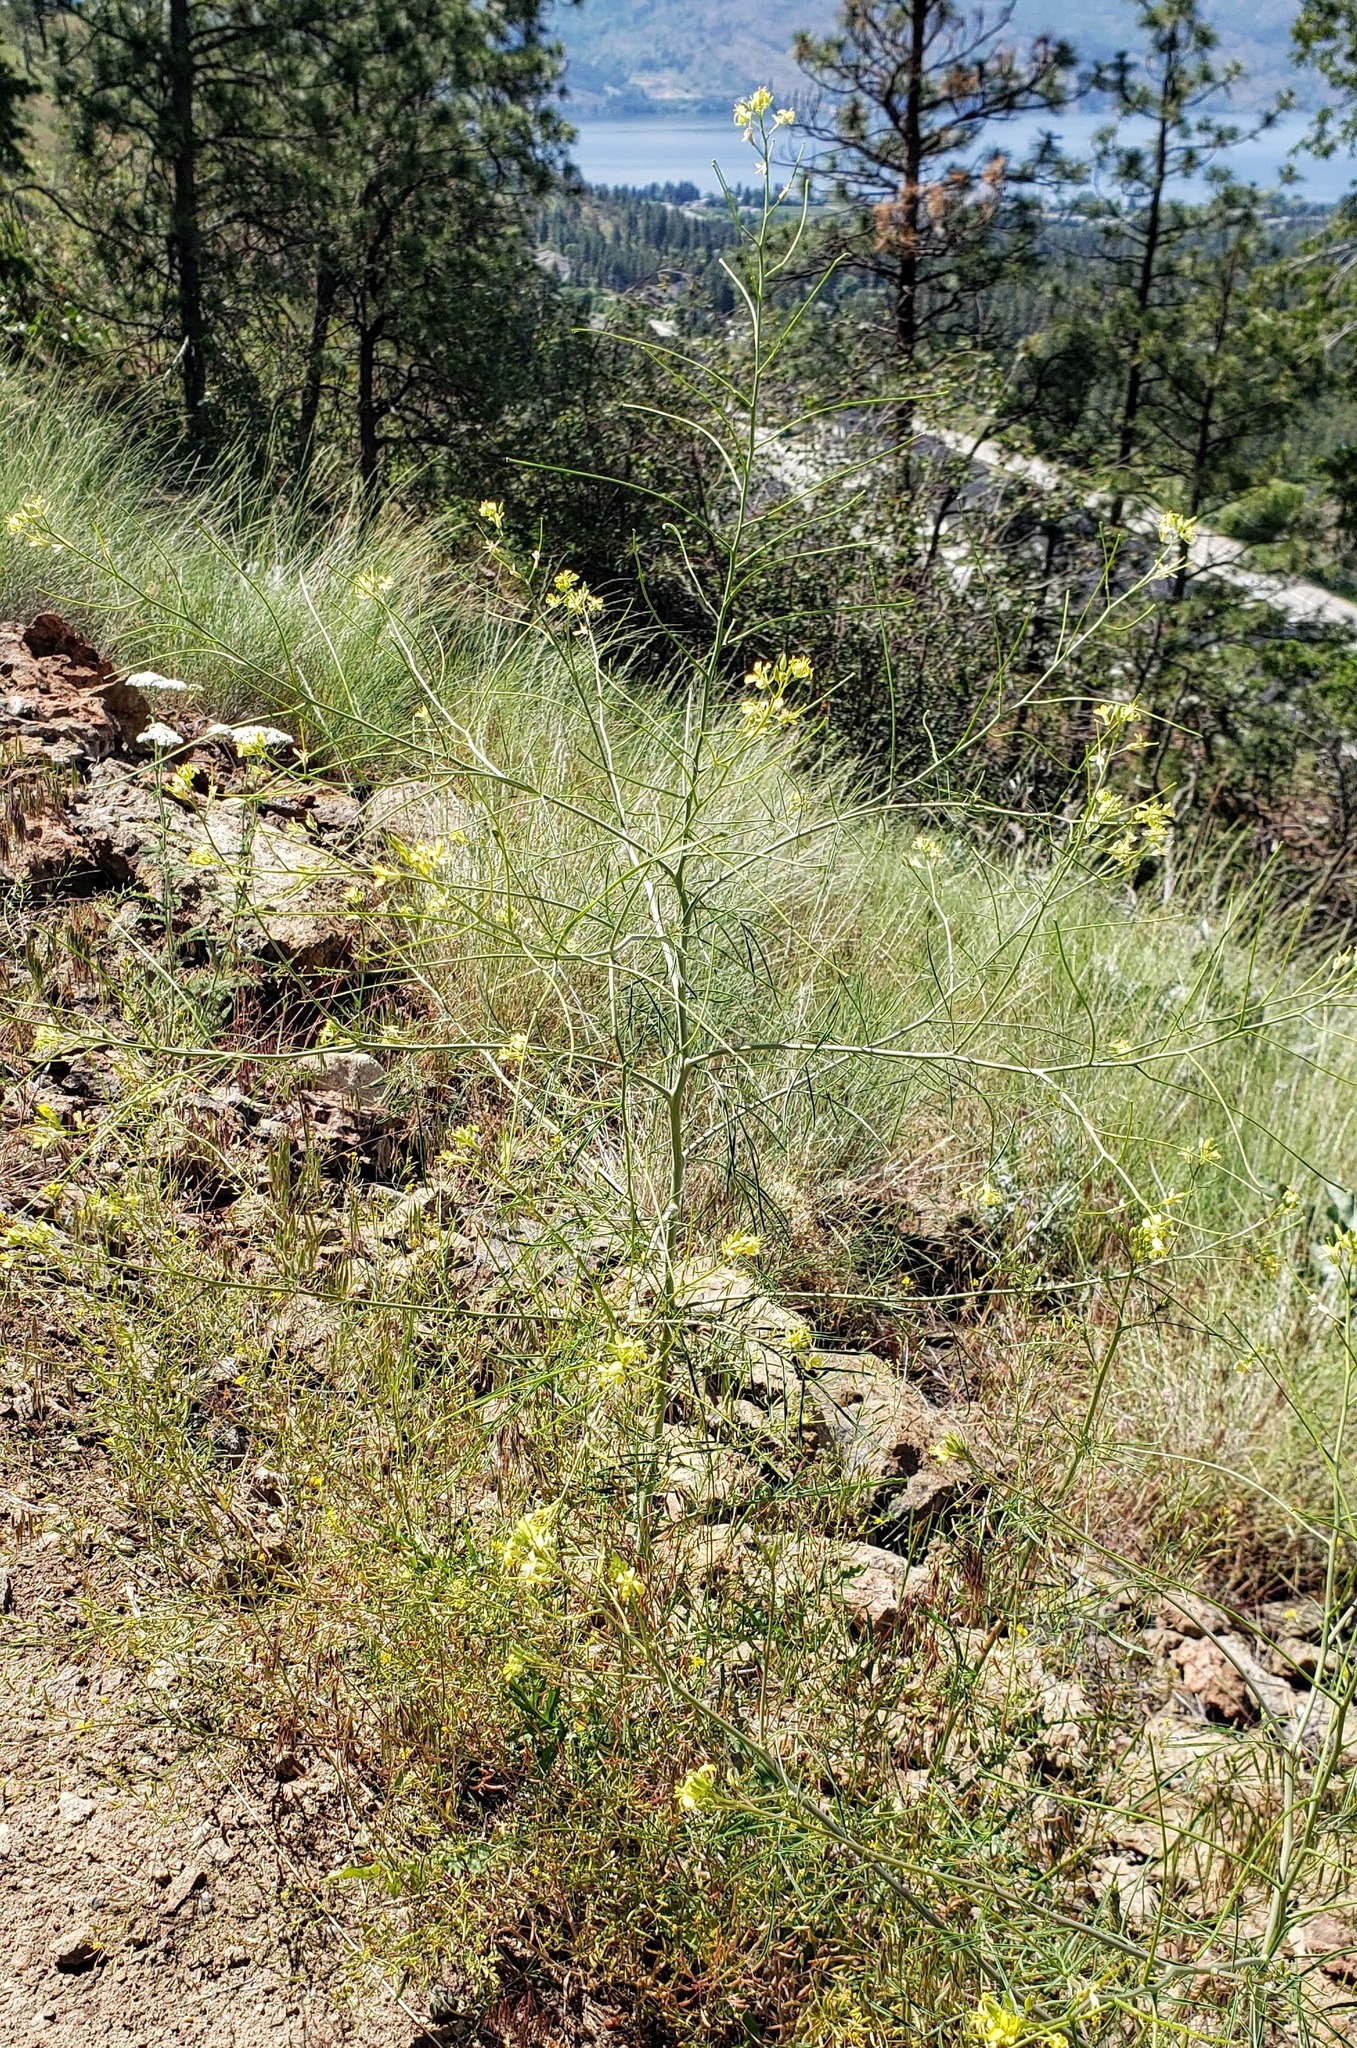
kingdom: Plantae
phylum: Tracheophyta
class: Magnoliopsida
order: Brassicales
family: Brassicaceae
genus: Sisymbrium
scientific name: Sisymbrium altissimum
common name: Tall rocket
